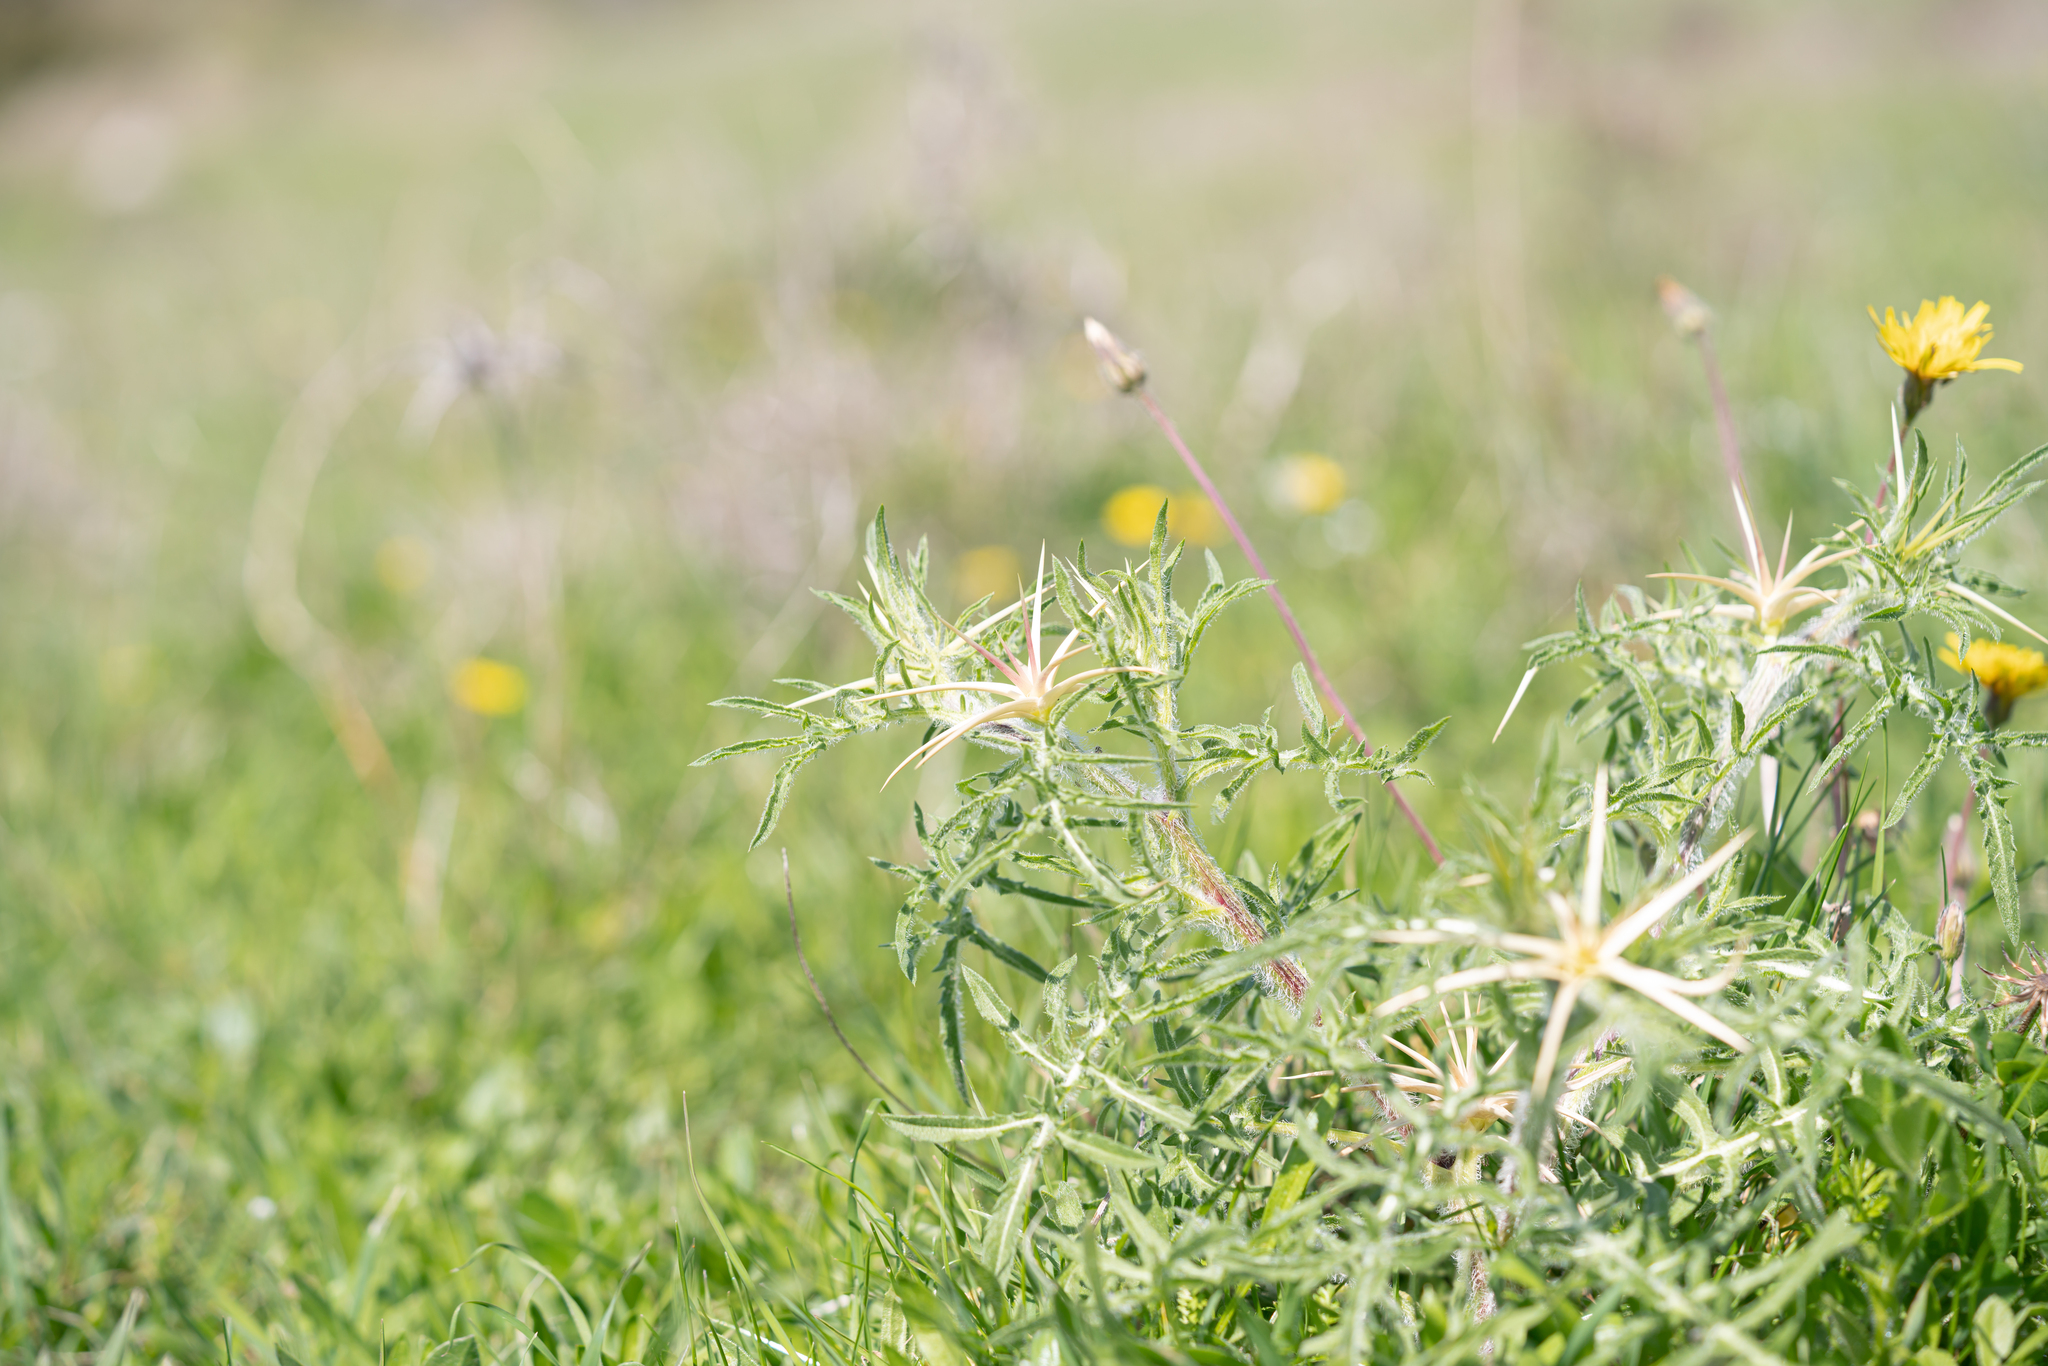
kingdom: Plantae
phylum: Tracheophyta
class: Magnoliopsida
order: Asterales
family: Asteraceae
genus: Centaurea
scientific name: Centaurea calcitrapa
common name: Red star-thistle
